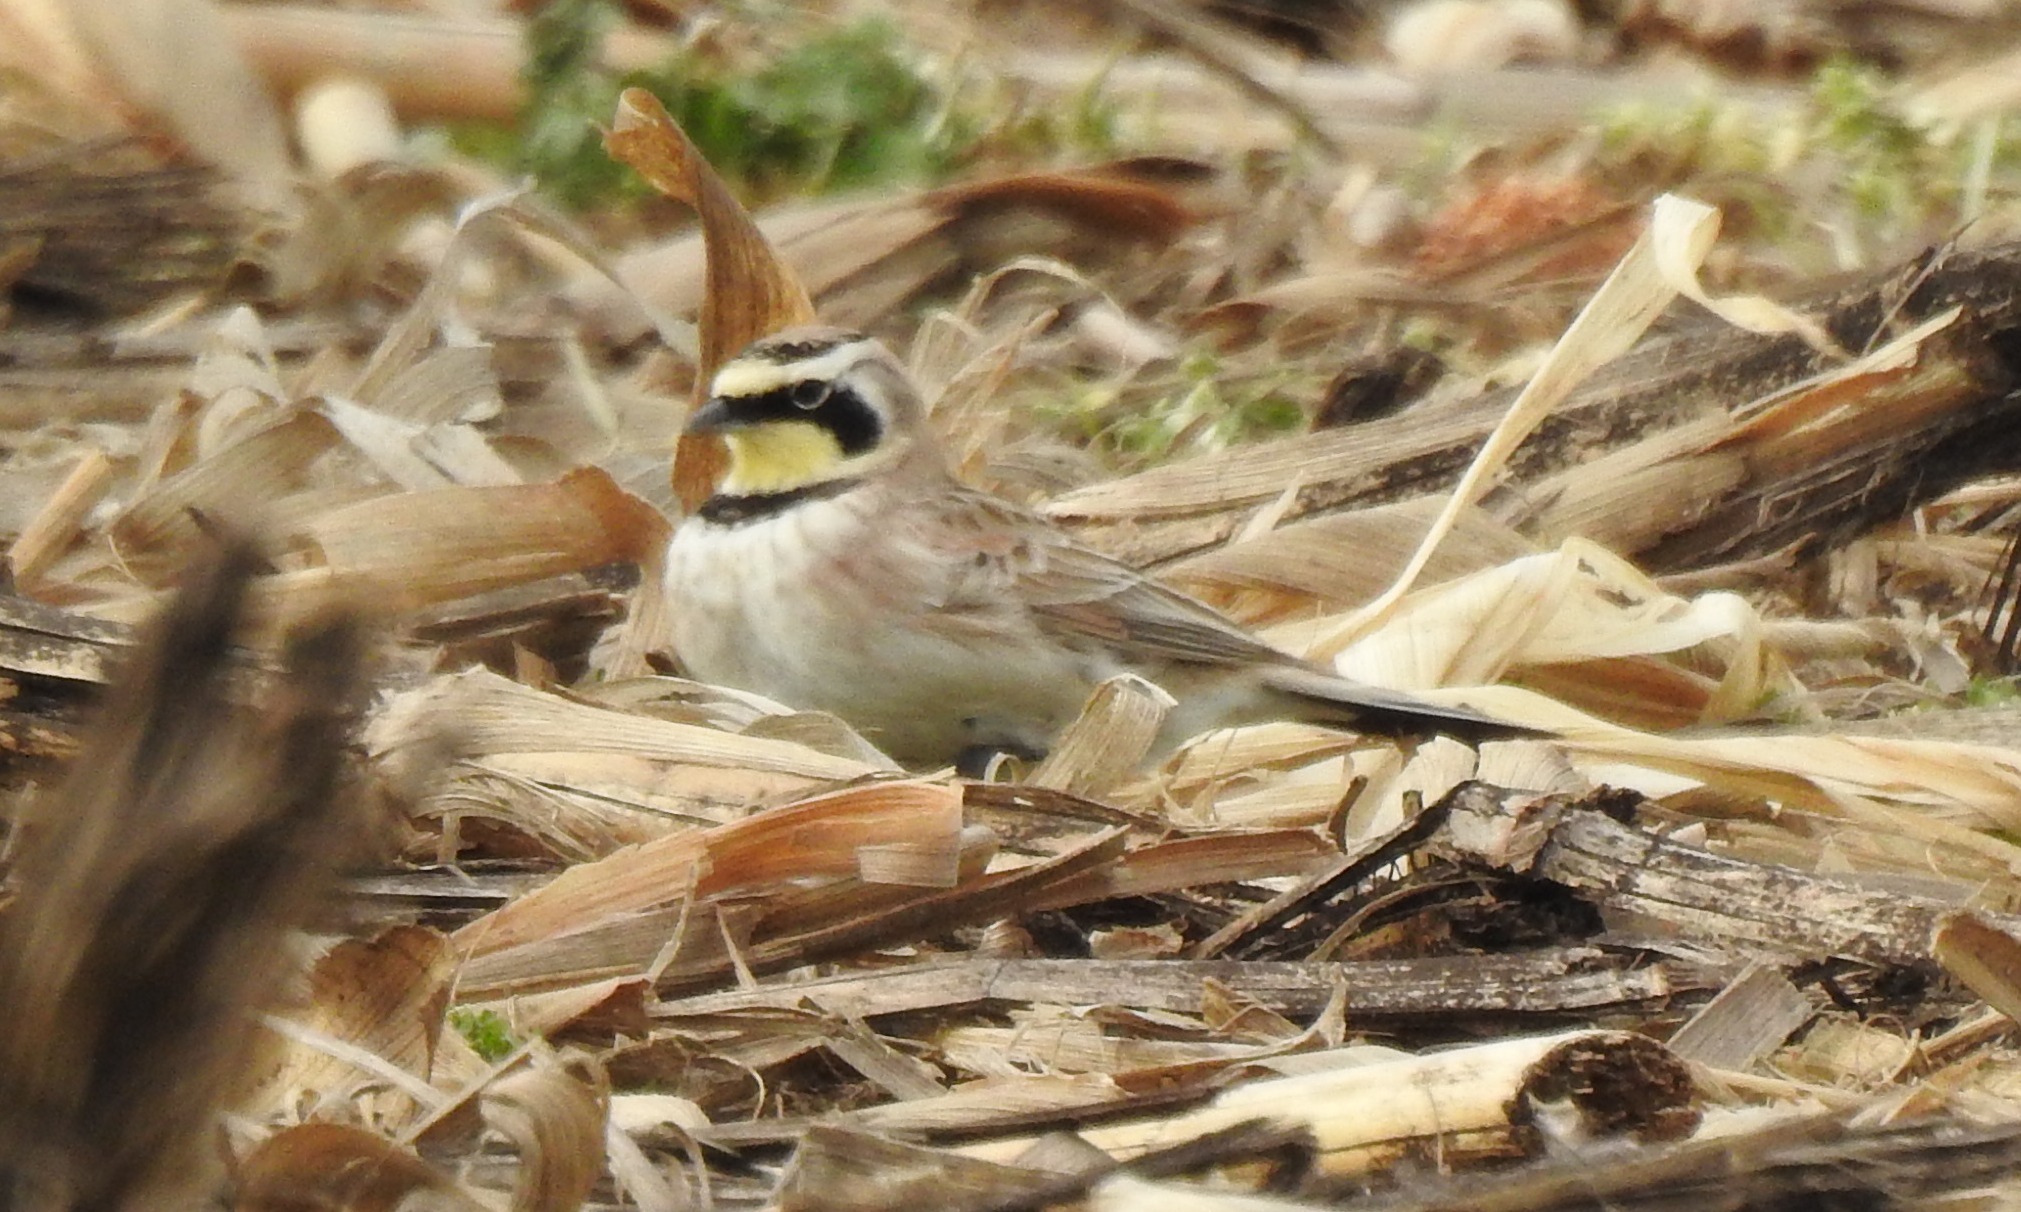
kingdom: Animalia
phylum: Chordata
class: Aves
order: Passeriformes
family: Alaudidae
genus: Eremophila
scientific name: Eremophila alpestris
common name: Horned lark
